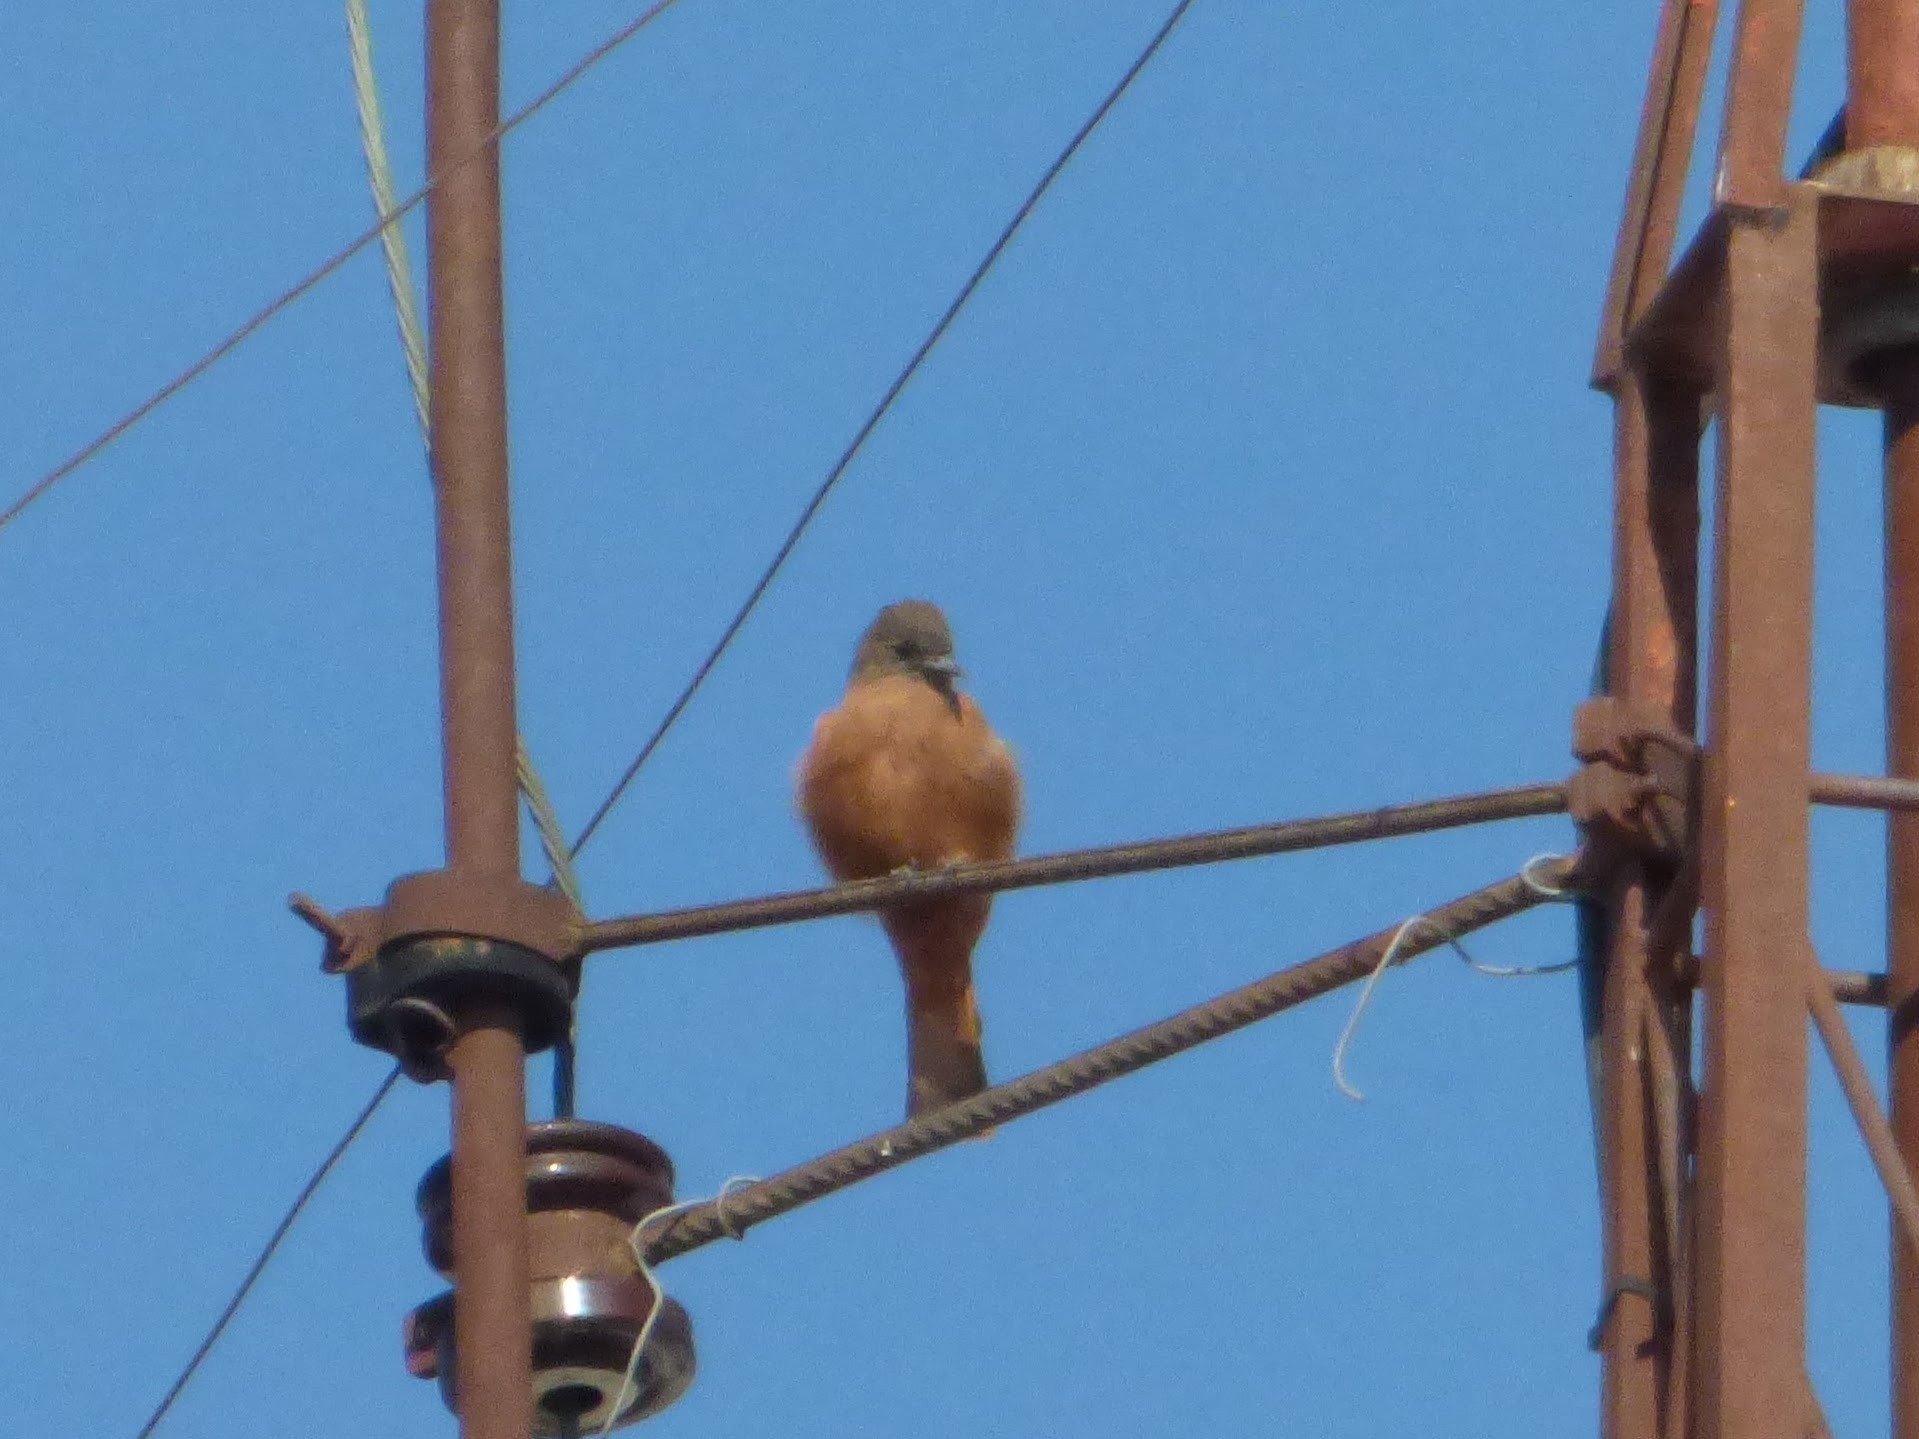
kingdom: Animalia
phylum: Chordata
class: Aves
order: Passeriformes
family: Tyrannidae
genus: Hirundinea
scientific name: Hirundinea ferruginea
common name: Cliff flycatcher
